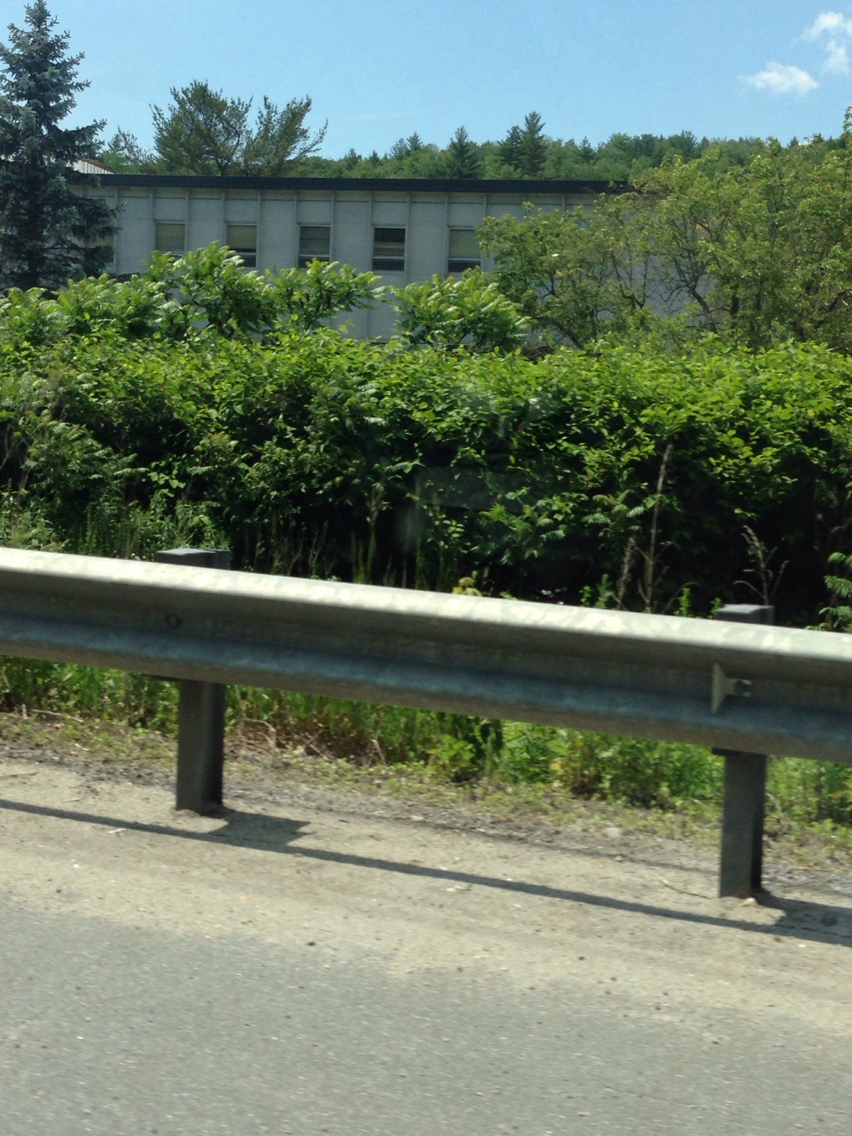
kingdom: Plantae
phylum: Tracheophyta
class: Magnoliopsida
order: Caryophyllales
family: Polygonaceae
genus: Reynoutria
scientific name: Reynoutria japonica
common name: Japanese knotweed
